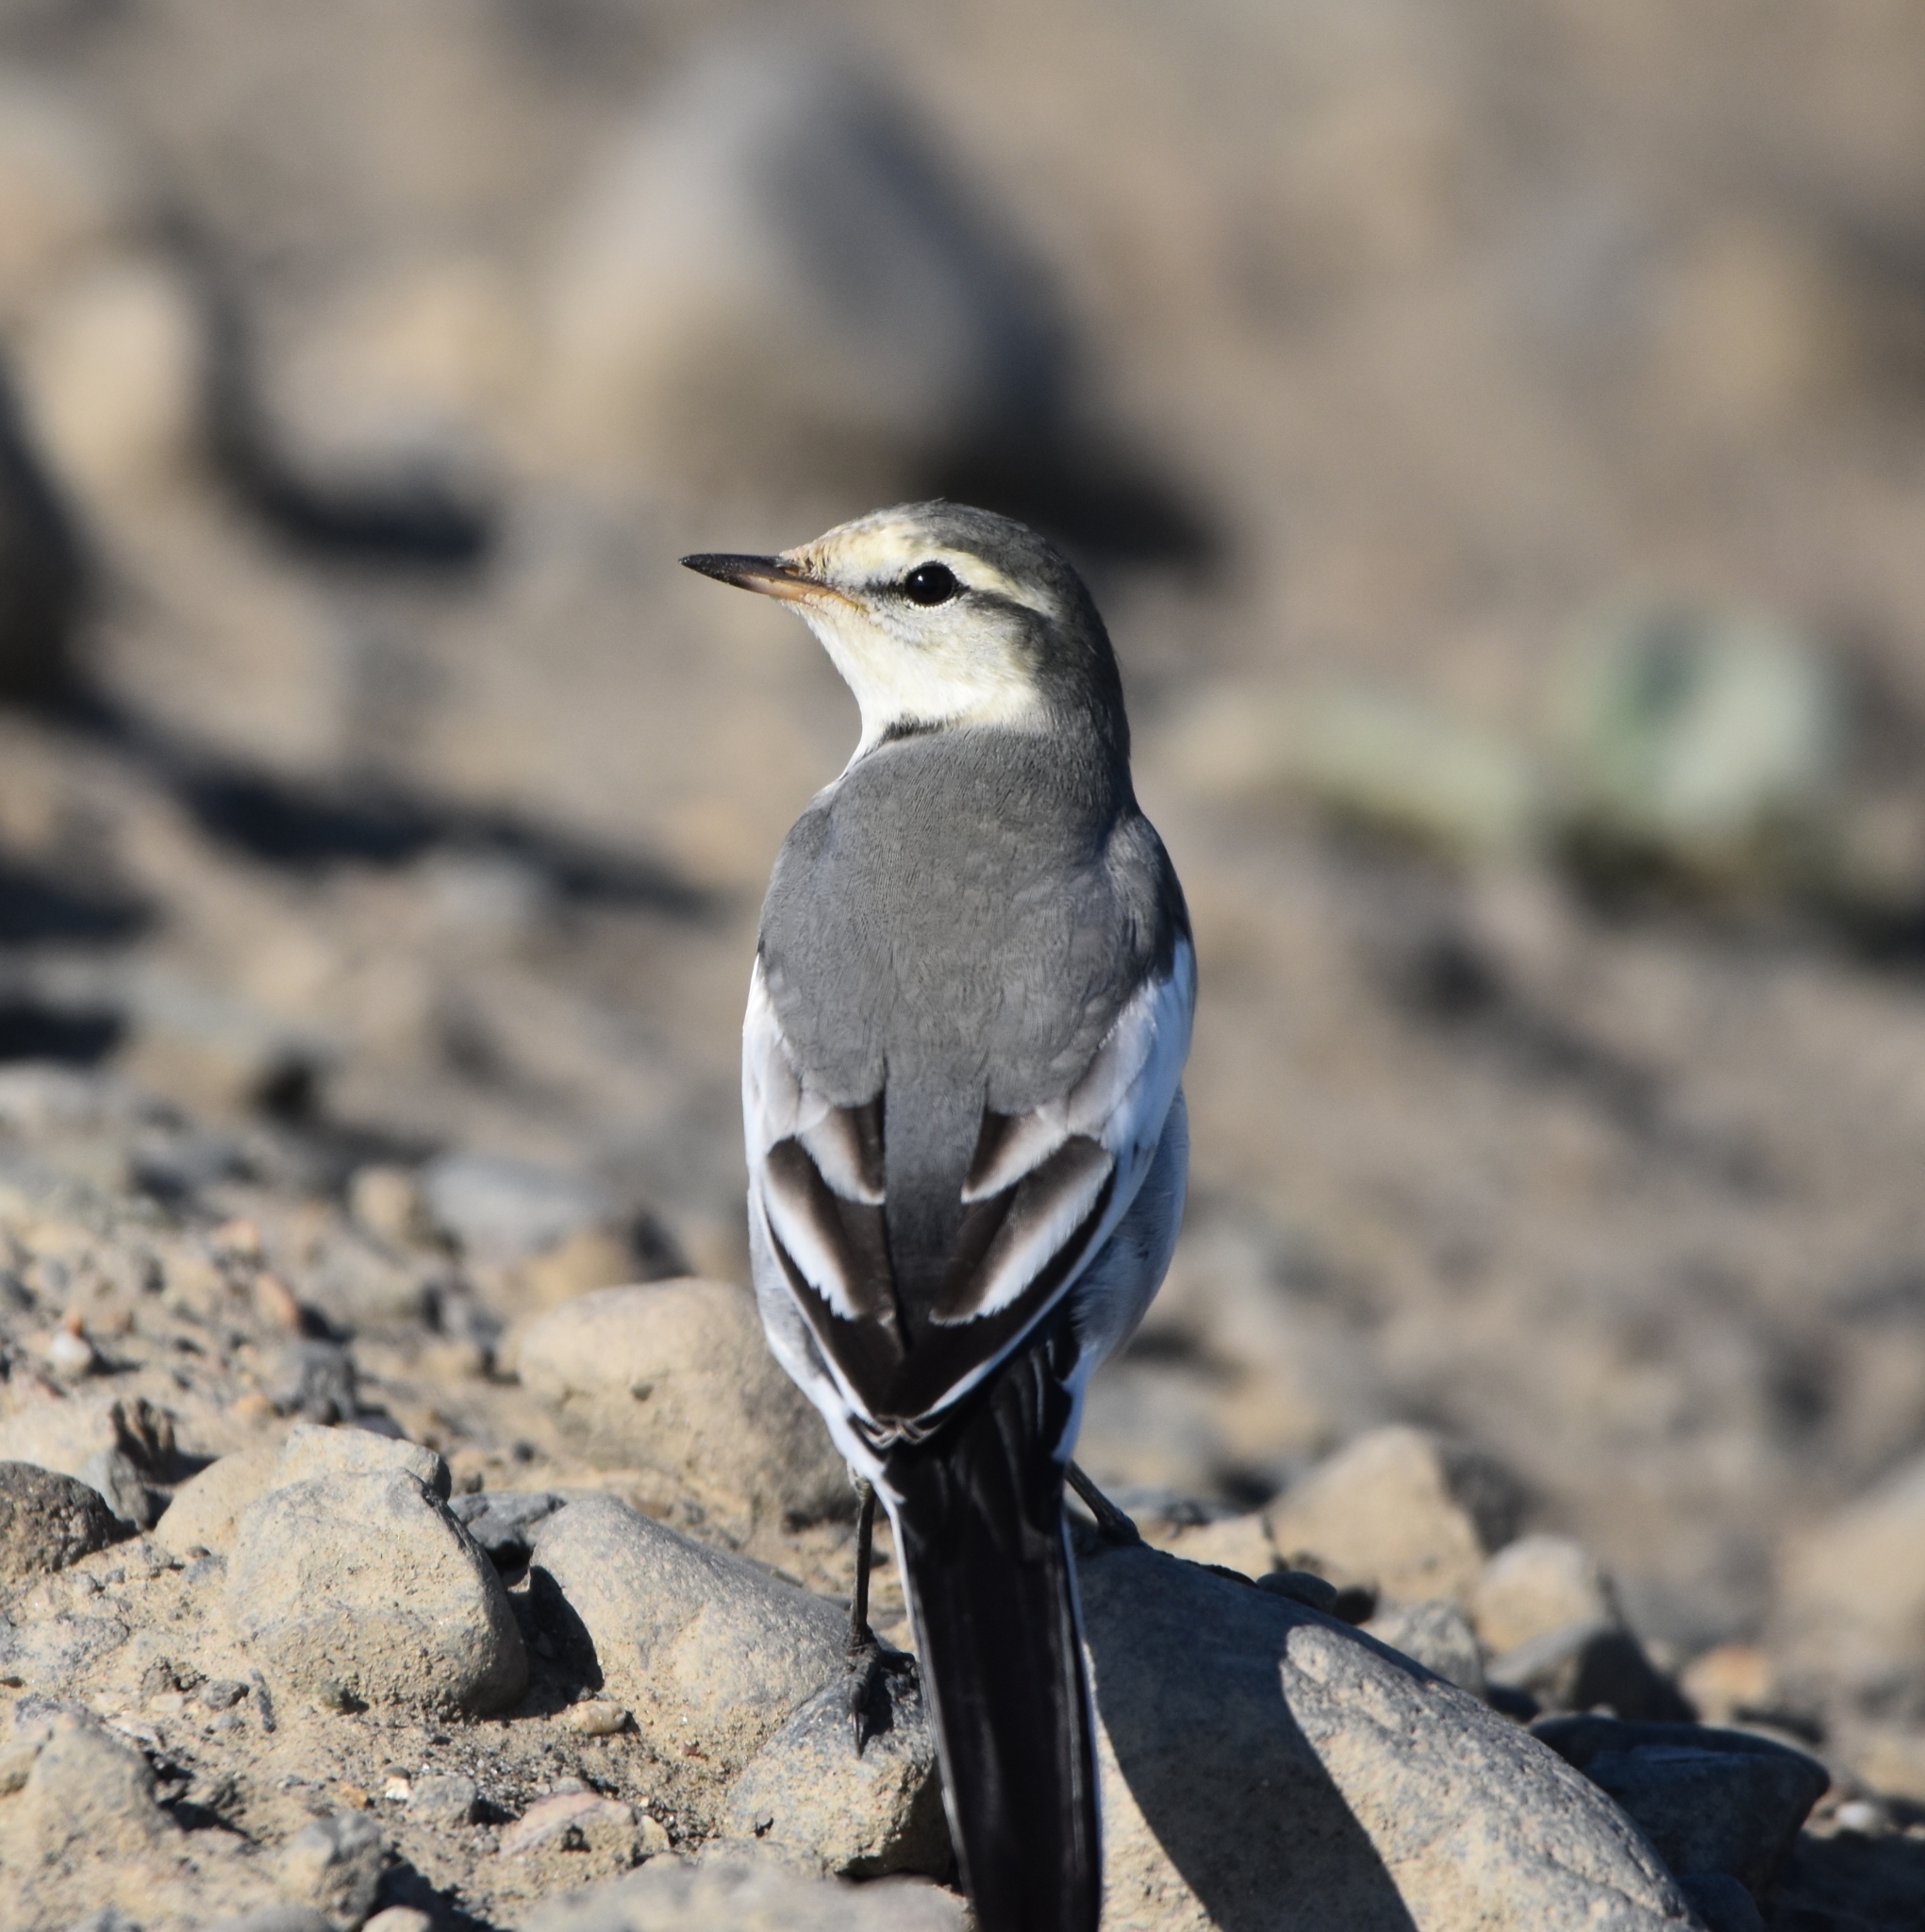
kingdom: Animalia
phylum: Chordata
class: Aves
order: Passeriformes
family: Motacillidae
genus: Motacilla
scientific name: Motacilla alba
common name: White wagtail
